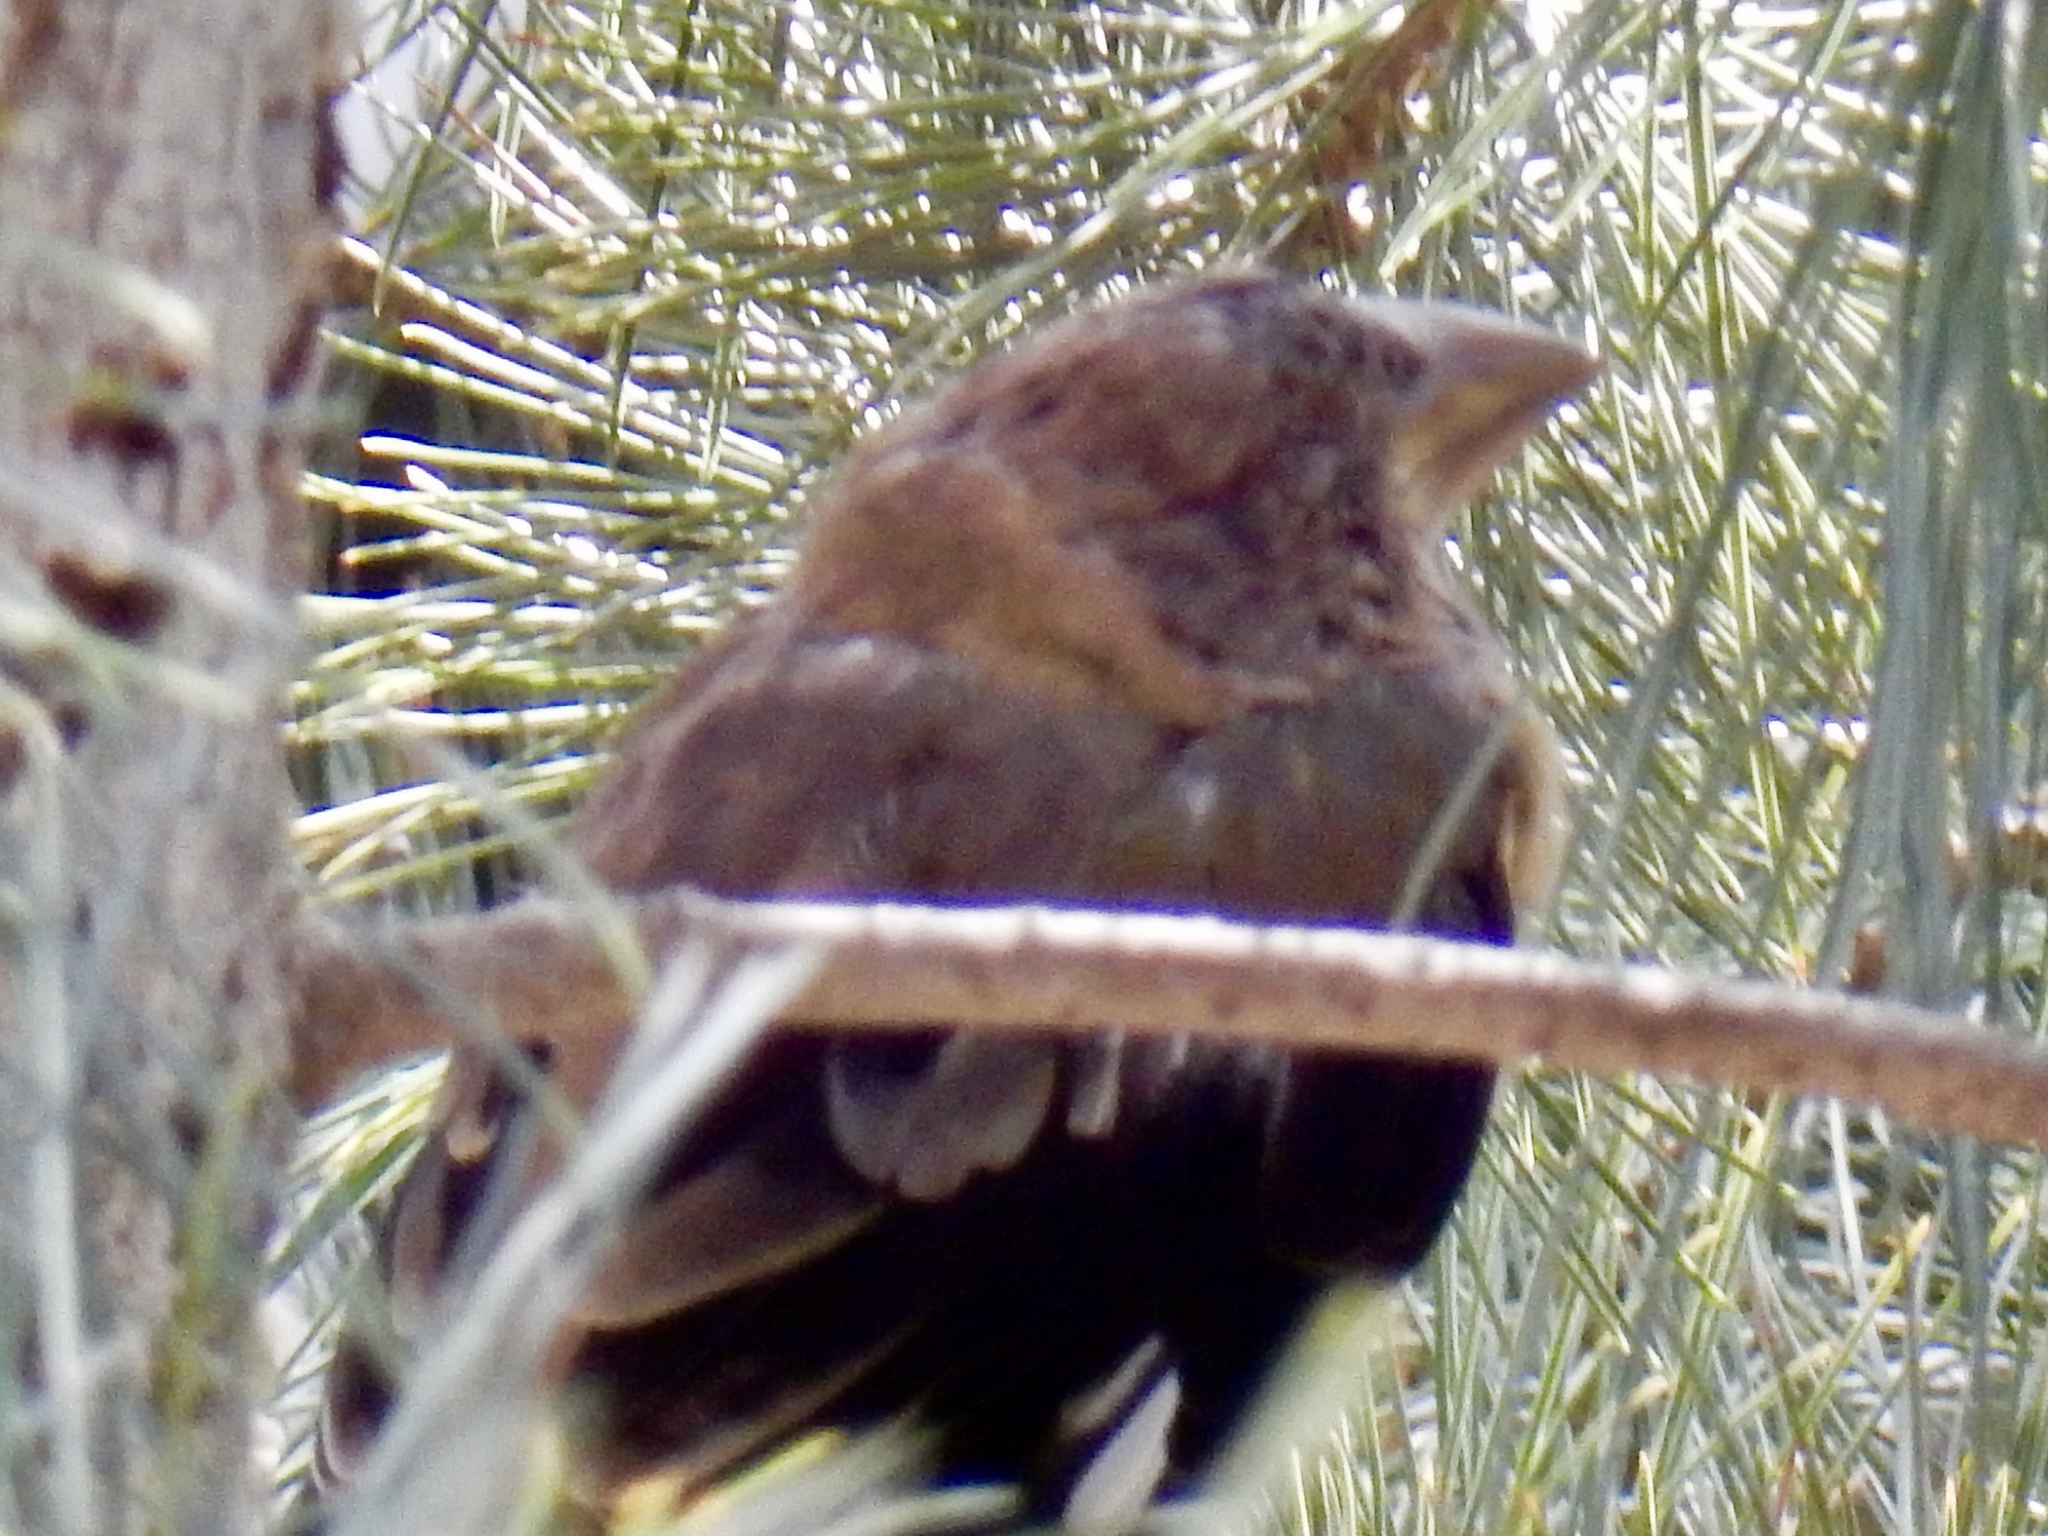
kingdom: Animalia
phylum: Chordata
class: Aves
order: Passeriformes
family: Fringillidae
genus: Hesperiphona
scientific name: Hesperiphona vespertina
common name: Evening grosbeak
